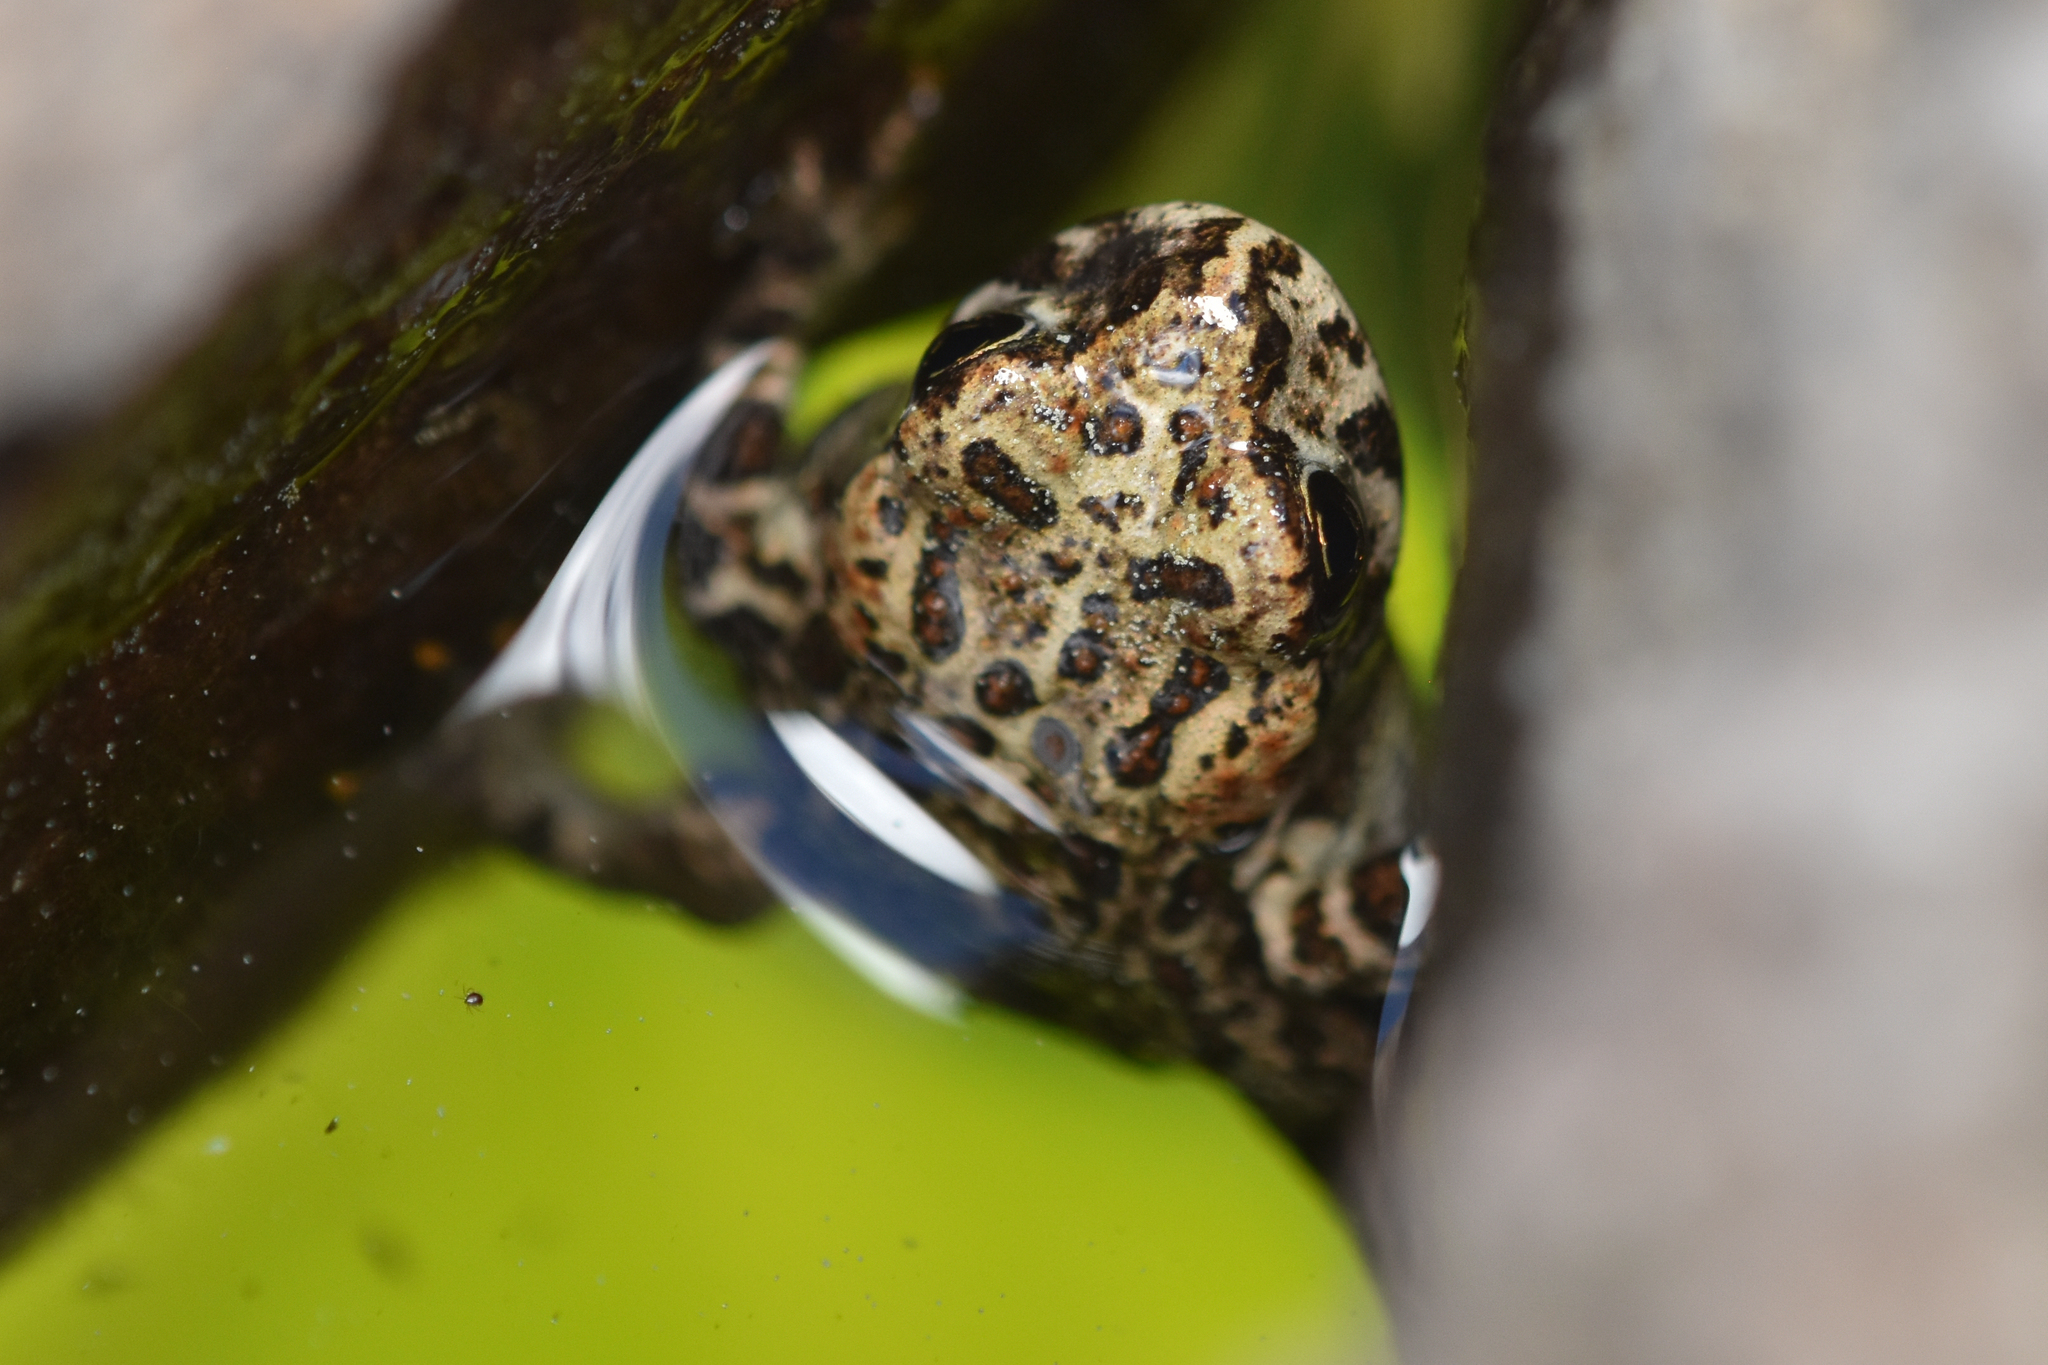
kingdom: Animalia
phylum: Chordata
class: Amphibia
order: Anura
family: Bufonidae
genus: Anaxyrus
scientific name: Anaxyrus boreas
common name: Western toad
